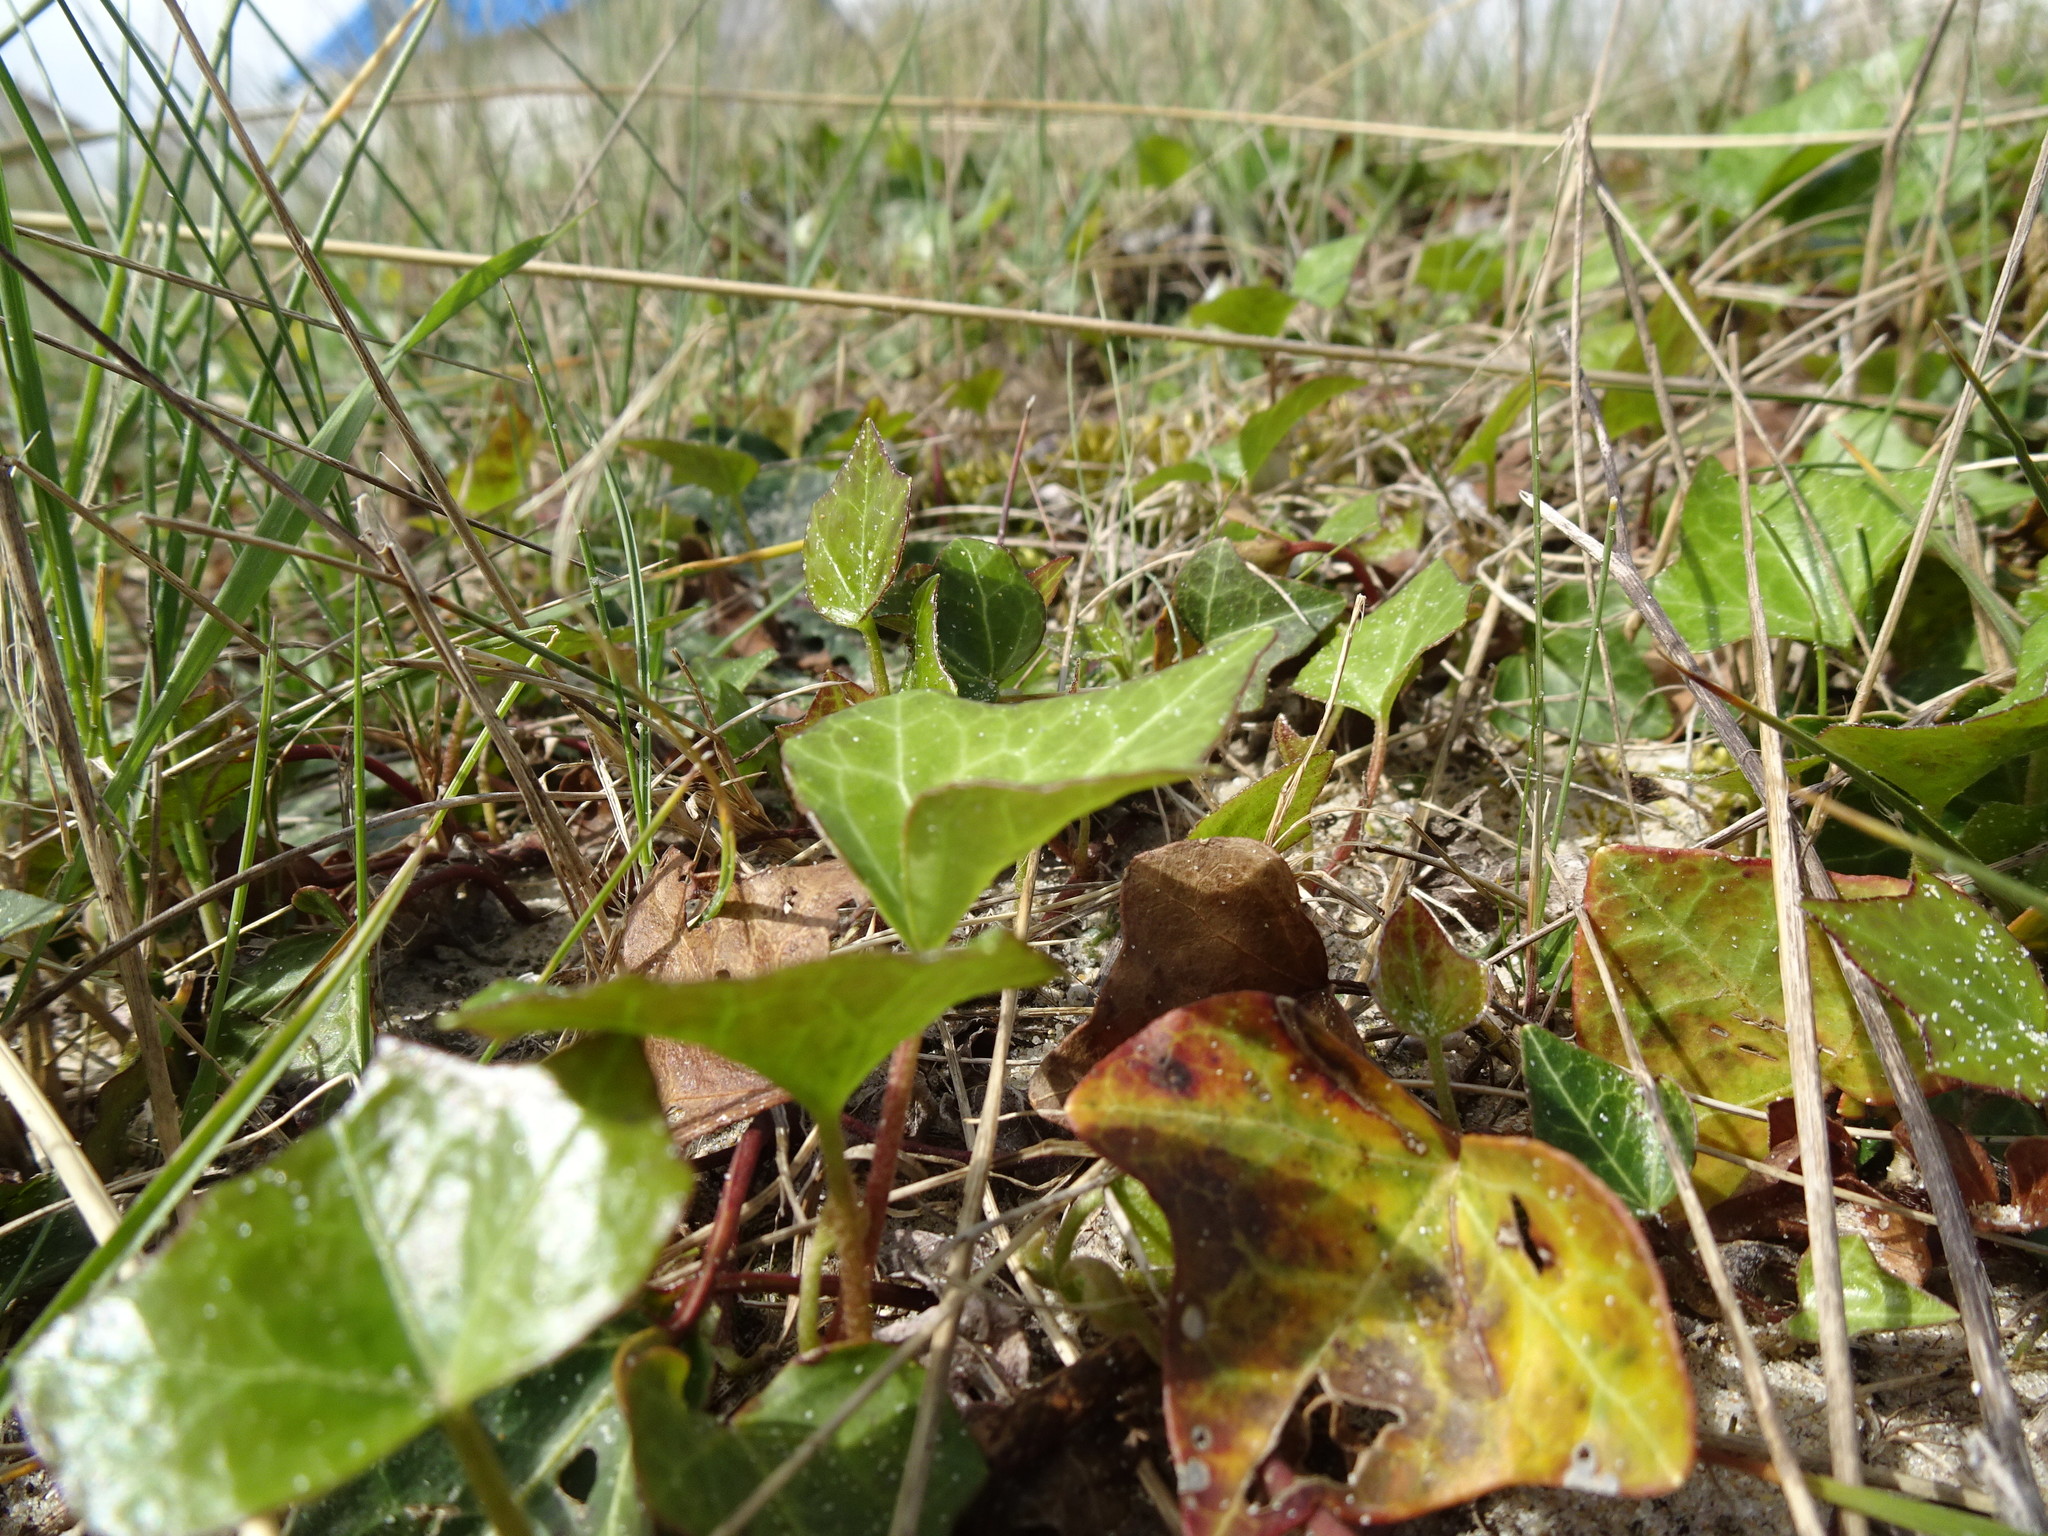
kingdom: Plantae
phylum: Tracheophyta
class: Magnoliopsida
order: Apiales
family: Araliaceae
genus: Hedera
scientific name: Hedera helix
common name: Ivy
